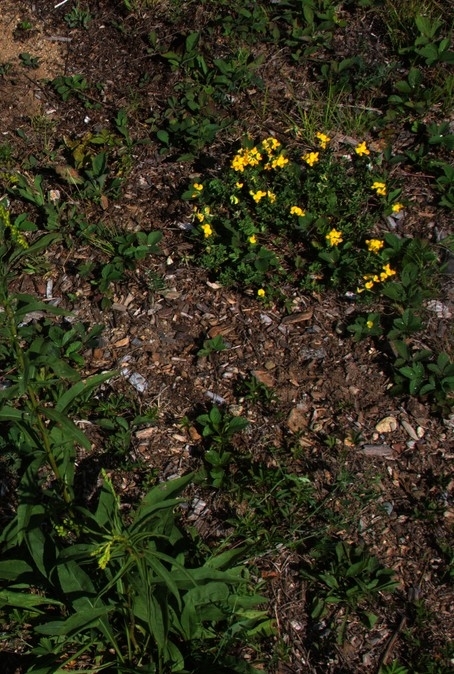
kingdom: Plantae
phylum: Tracheophyta
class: Magnoliopsida
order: Fabales
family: Fabaceae
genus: Lotus
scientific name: Lotus corniculatus
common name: Common bird's-foot-trefoil
